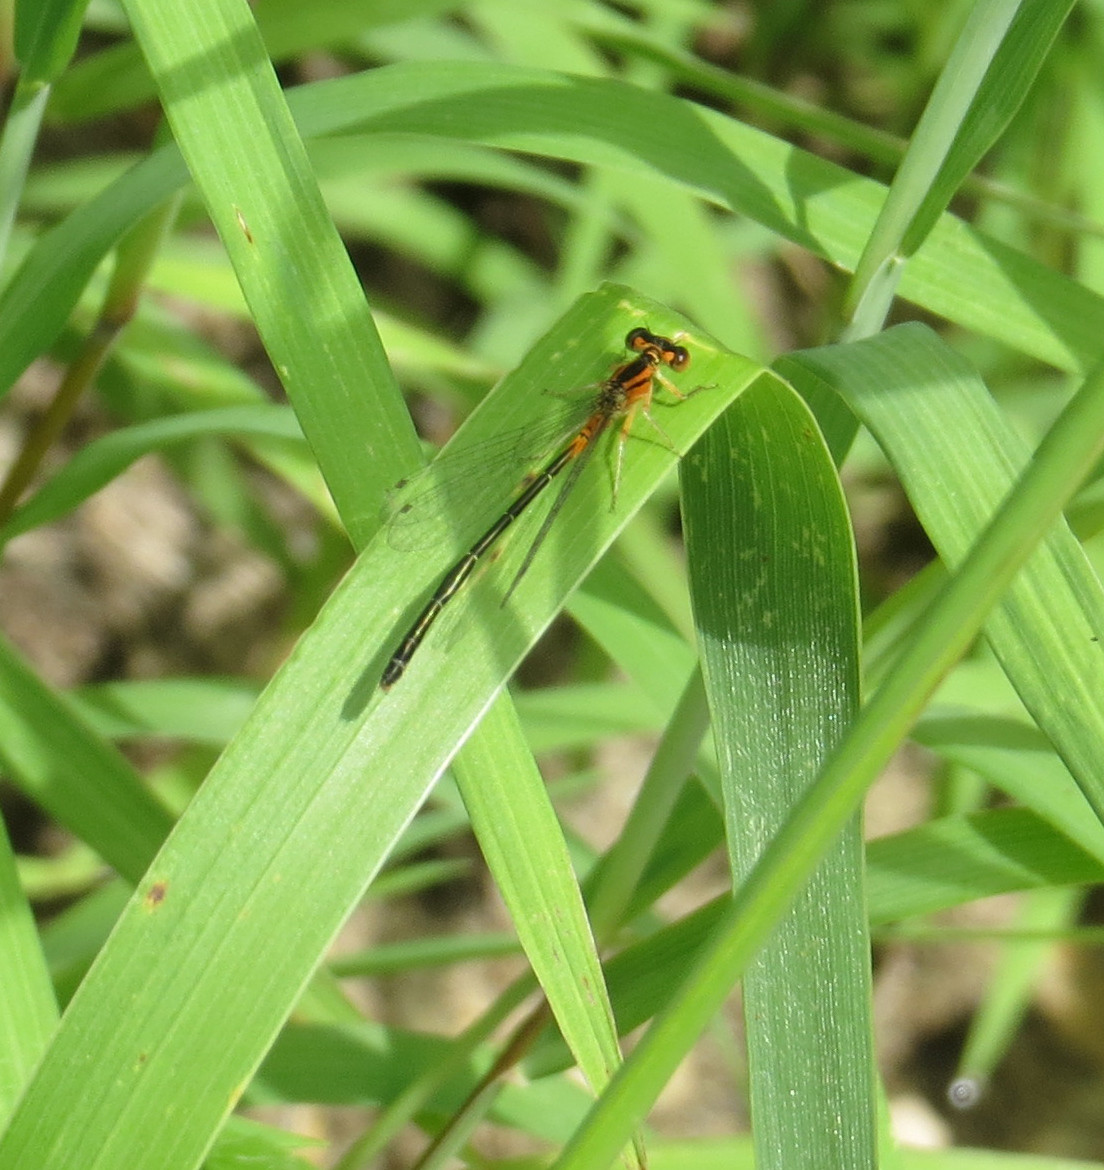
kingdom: Animalia
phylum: Arthropoda
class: Insecta
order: Odonata
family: Coenagrionidae
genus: Ischnura
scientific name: Ischnura verticalis
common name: Eastern forktail
